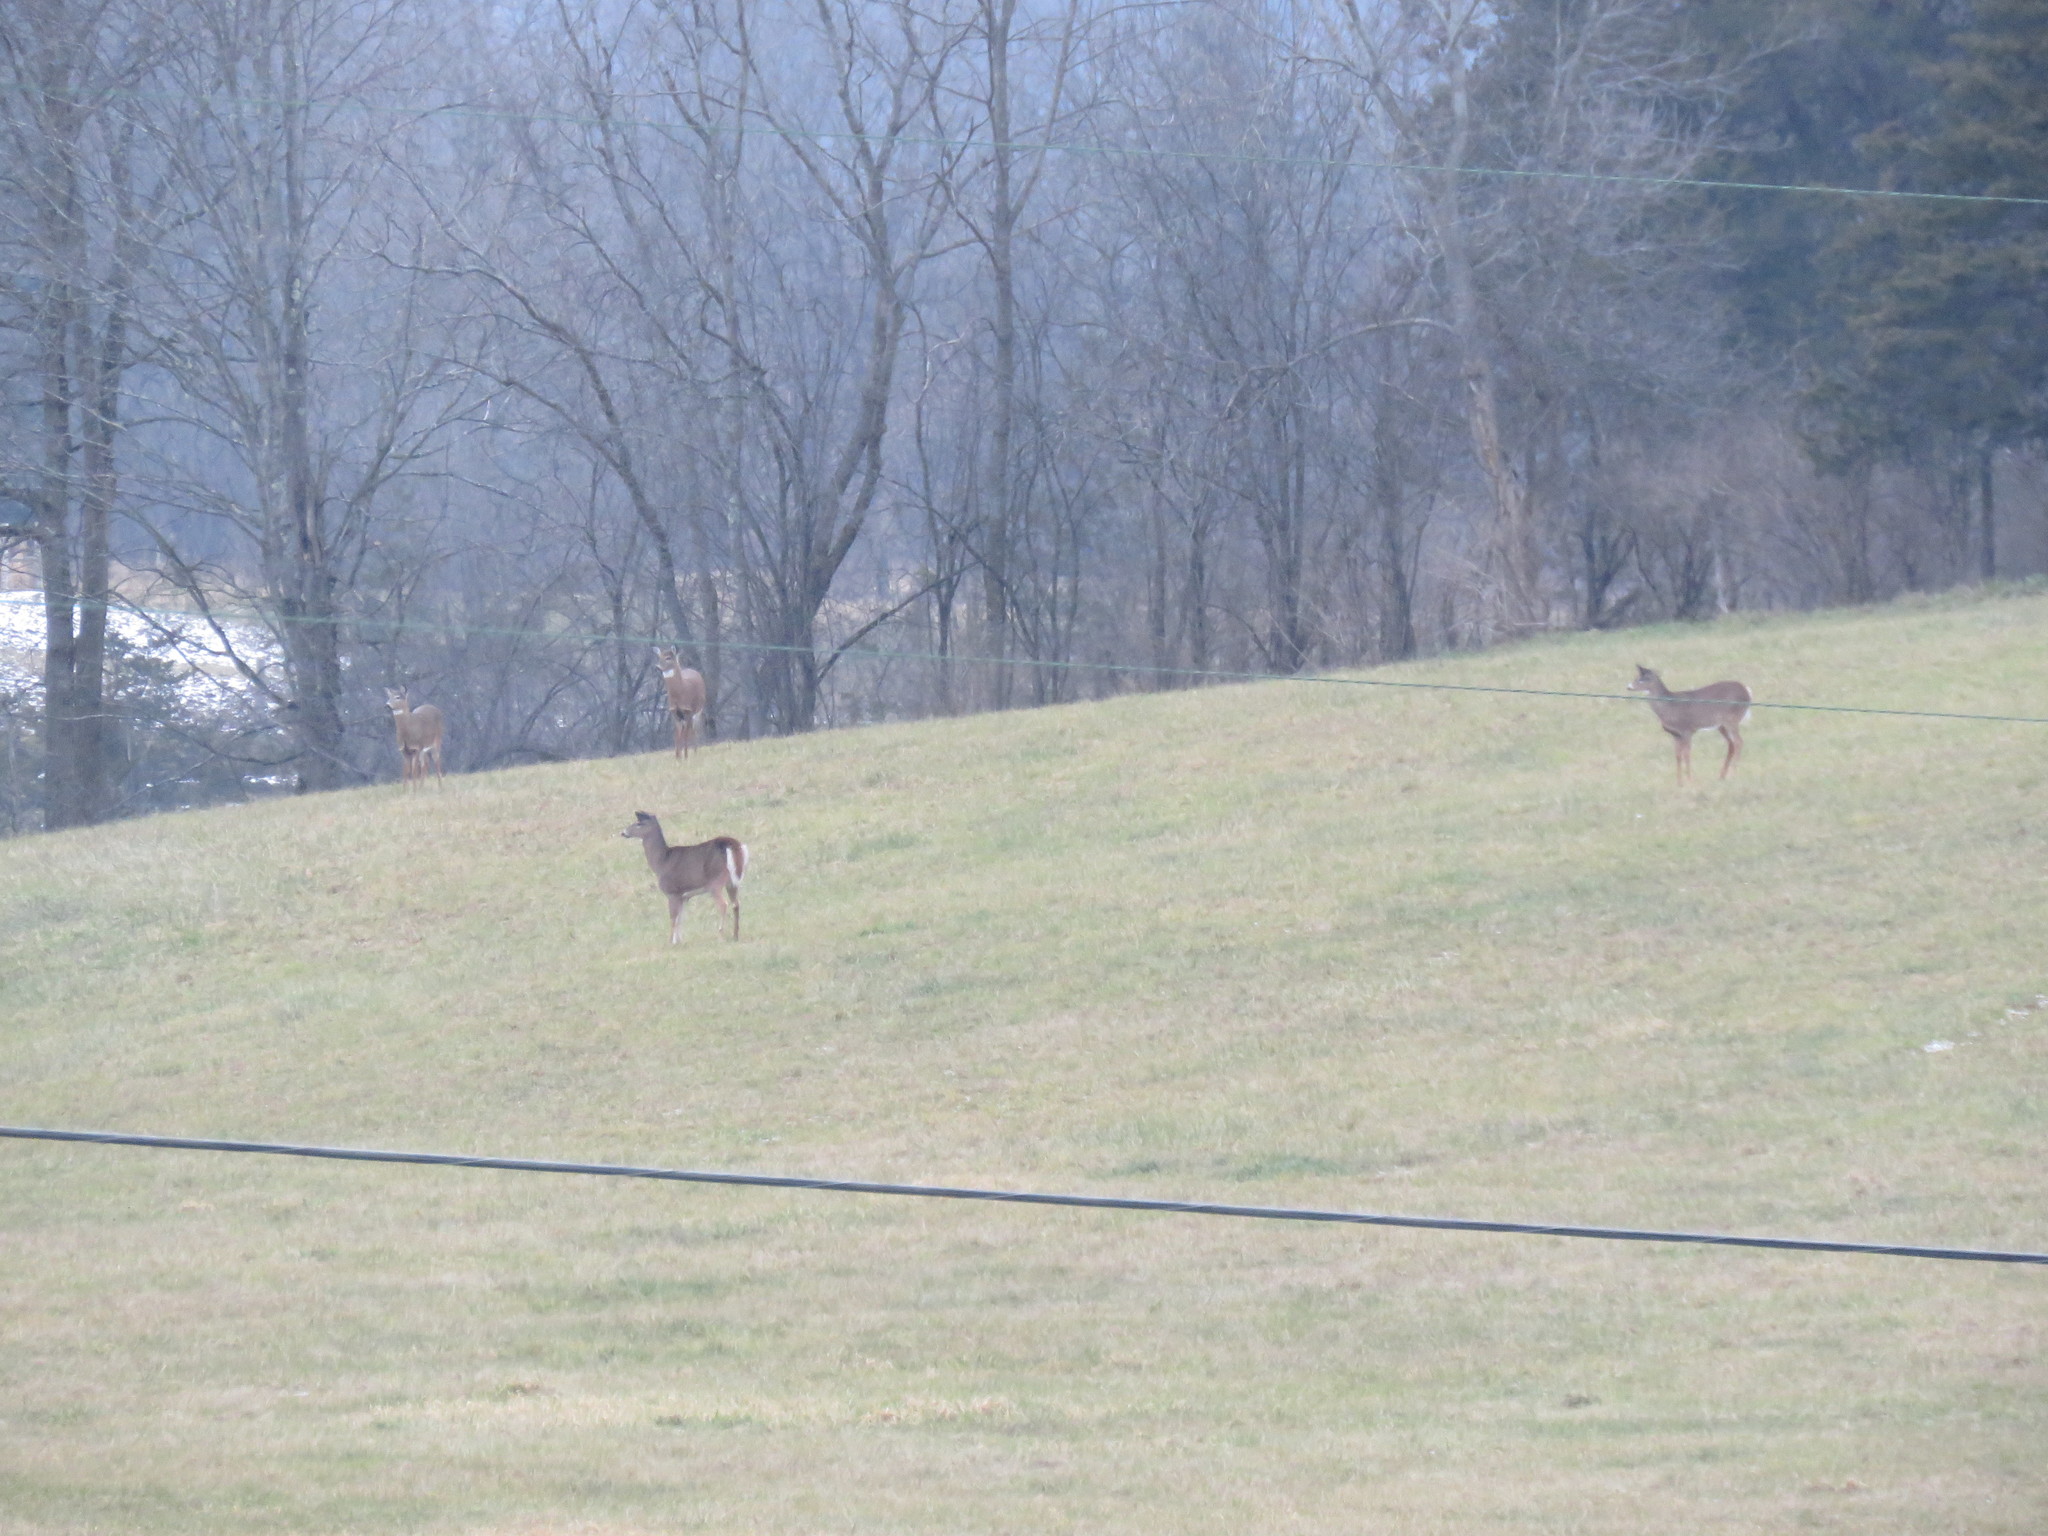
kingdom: Animalia
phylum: Chordata
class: Mammalia
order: Artiodactyla
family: Cervidae
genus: Odocoileus
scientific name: Odocoileus virginianus
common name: White-tailed deer
